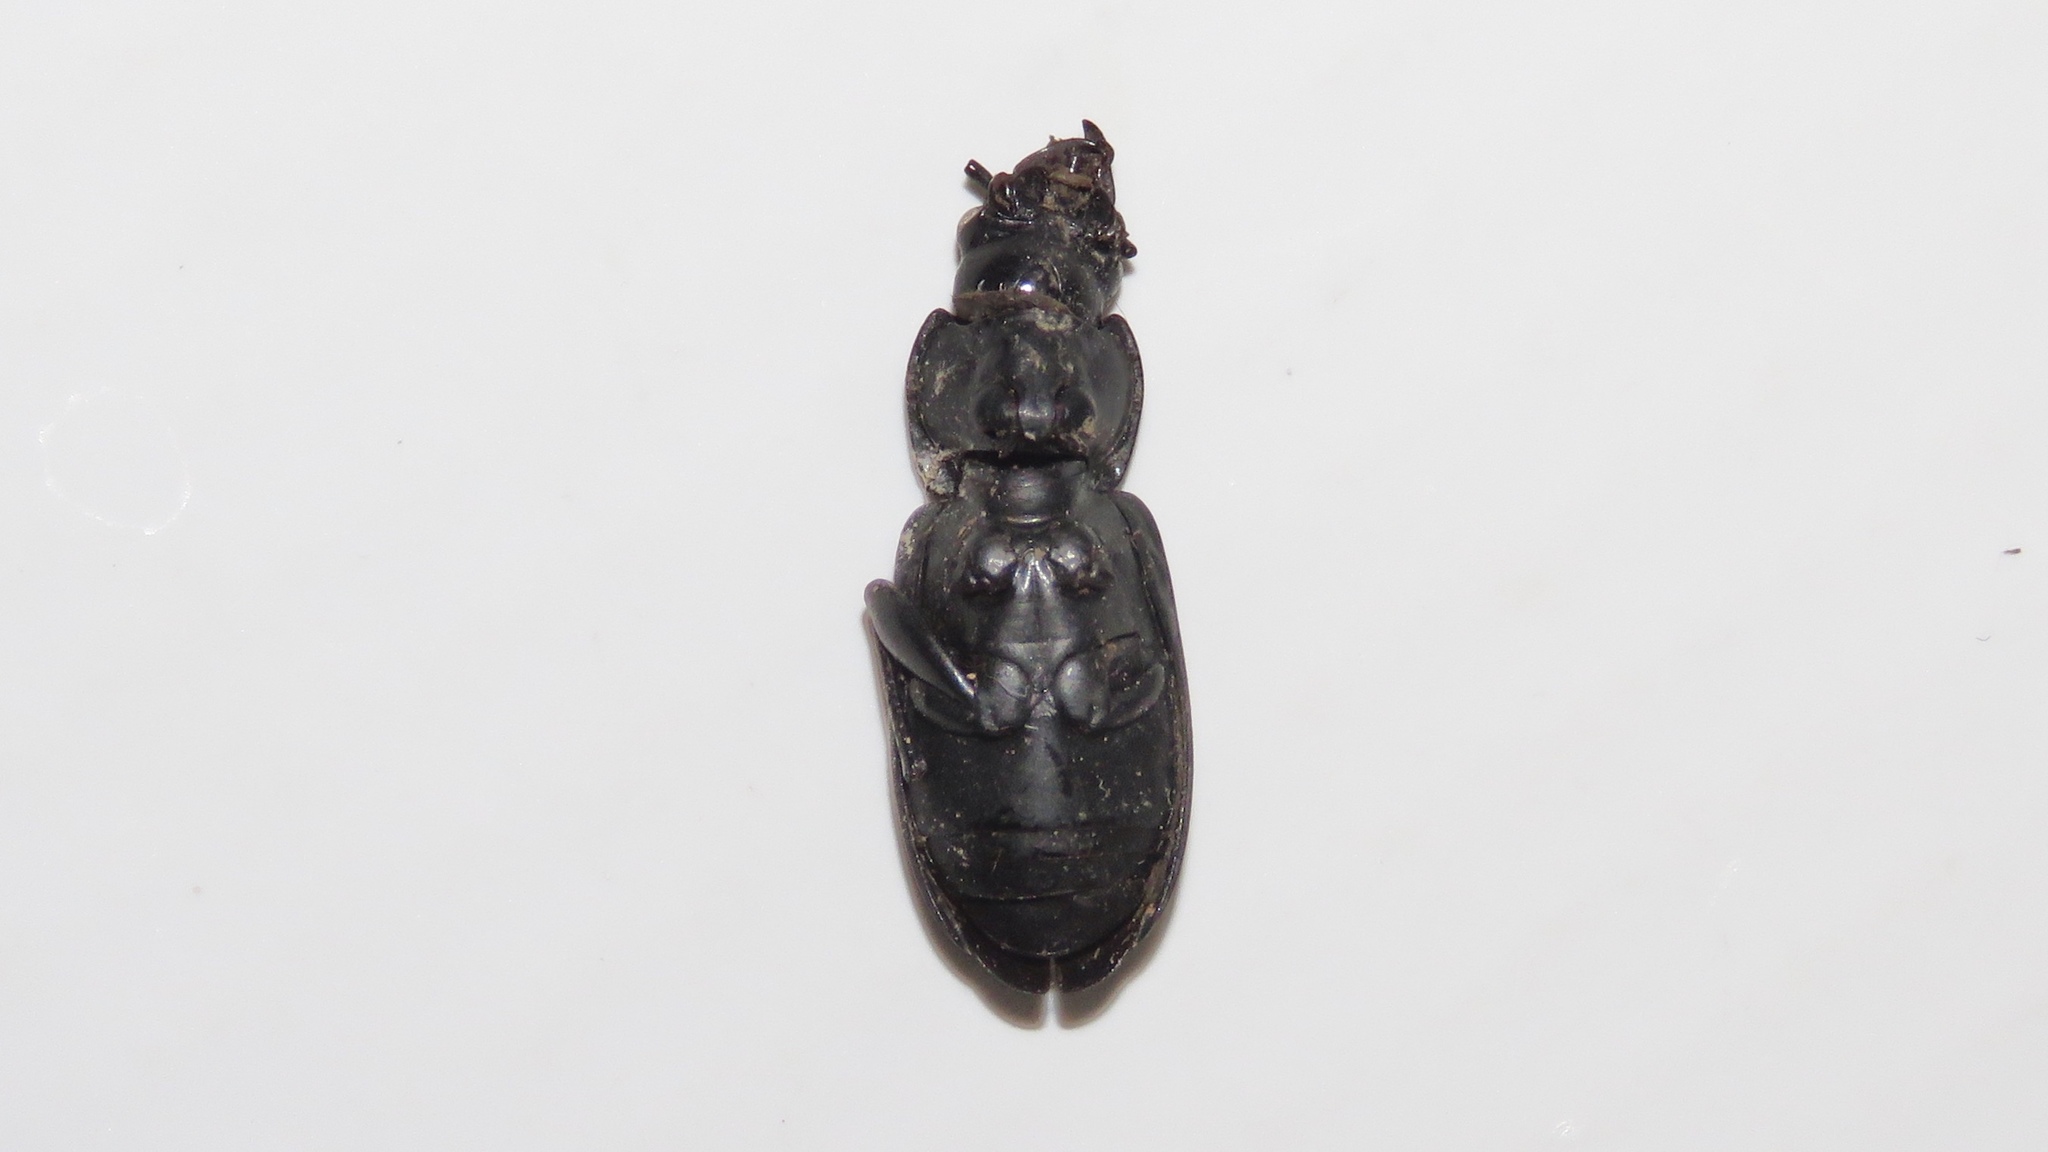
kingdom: Animalia
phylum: Arthropoda
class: Insecta
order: Coleoptera
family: Carabidae
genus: Pterostichus
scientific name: Pterostichus melanarius
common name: European dark harp ground beetle
